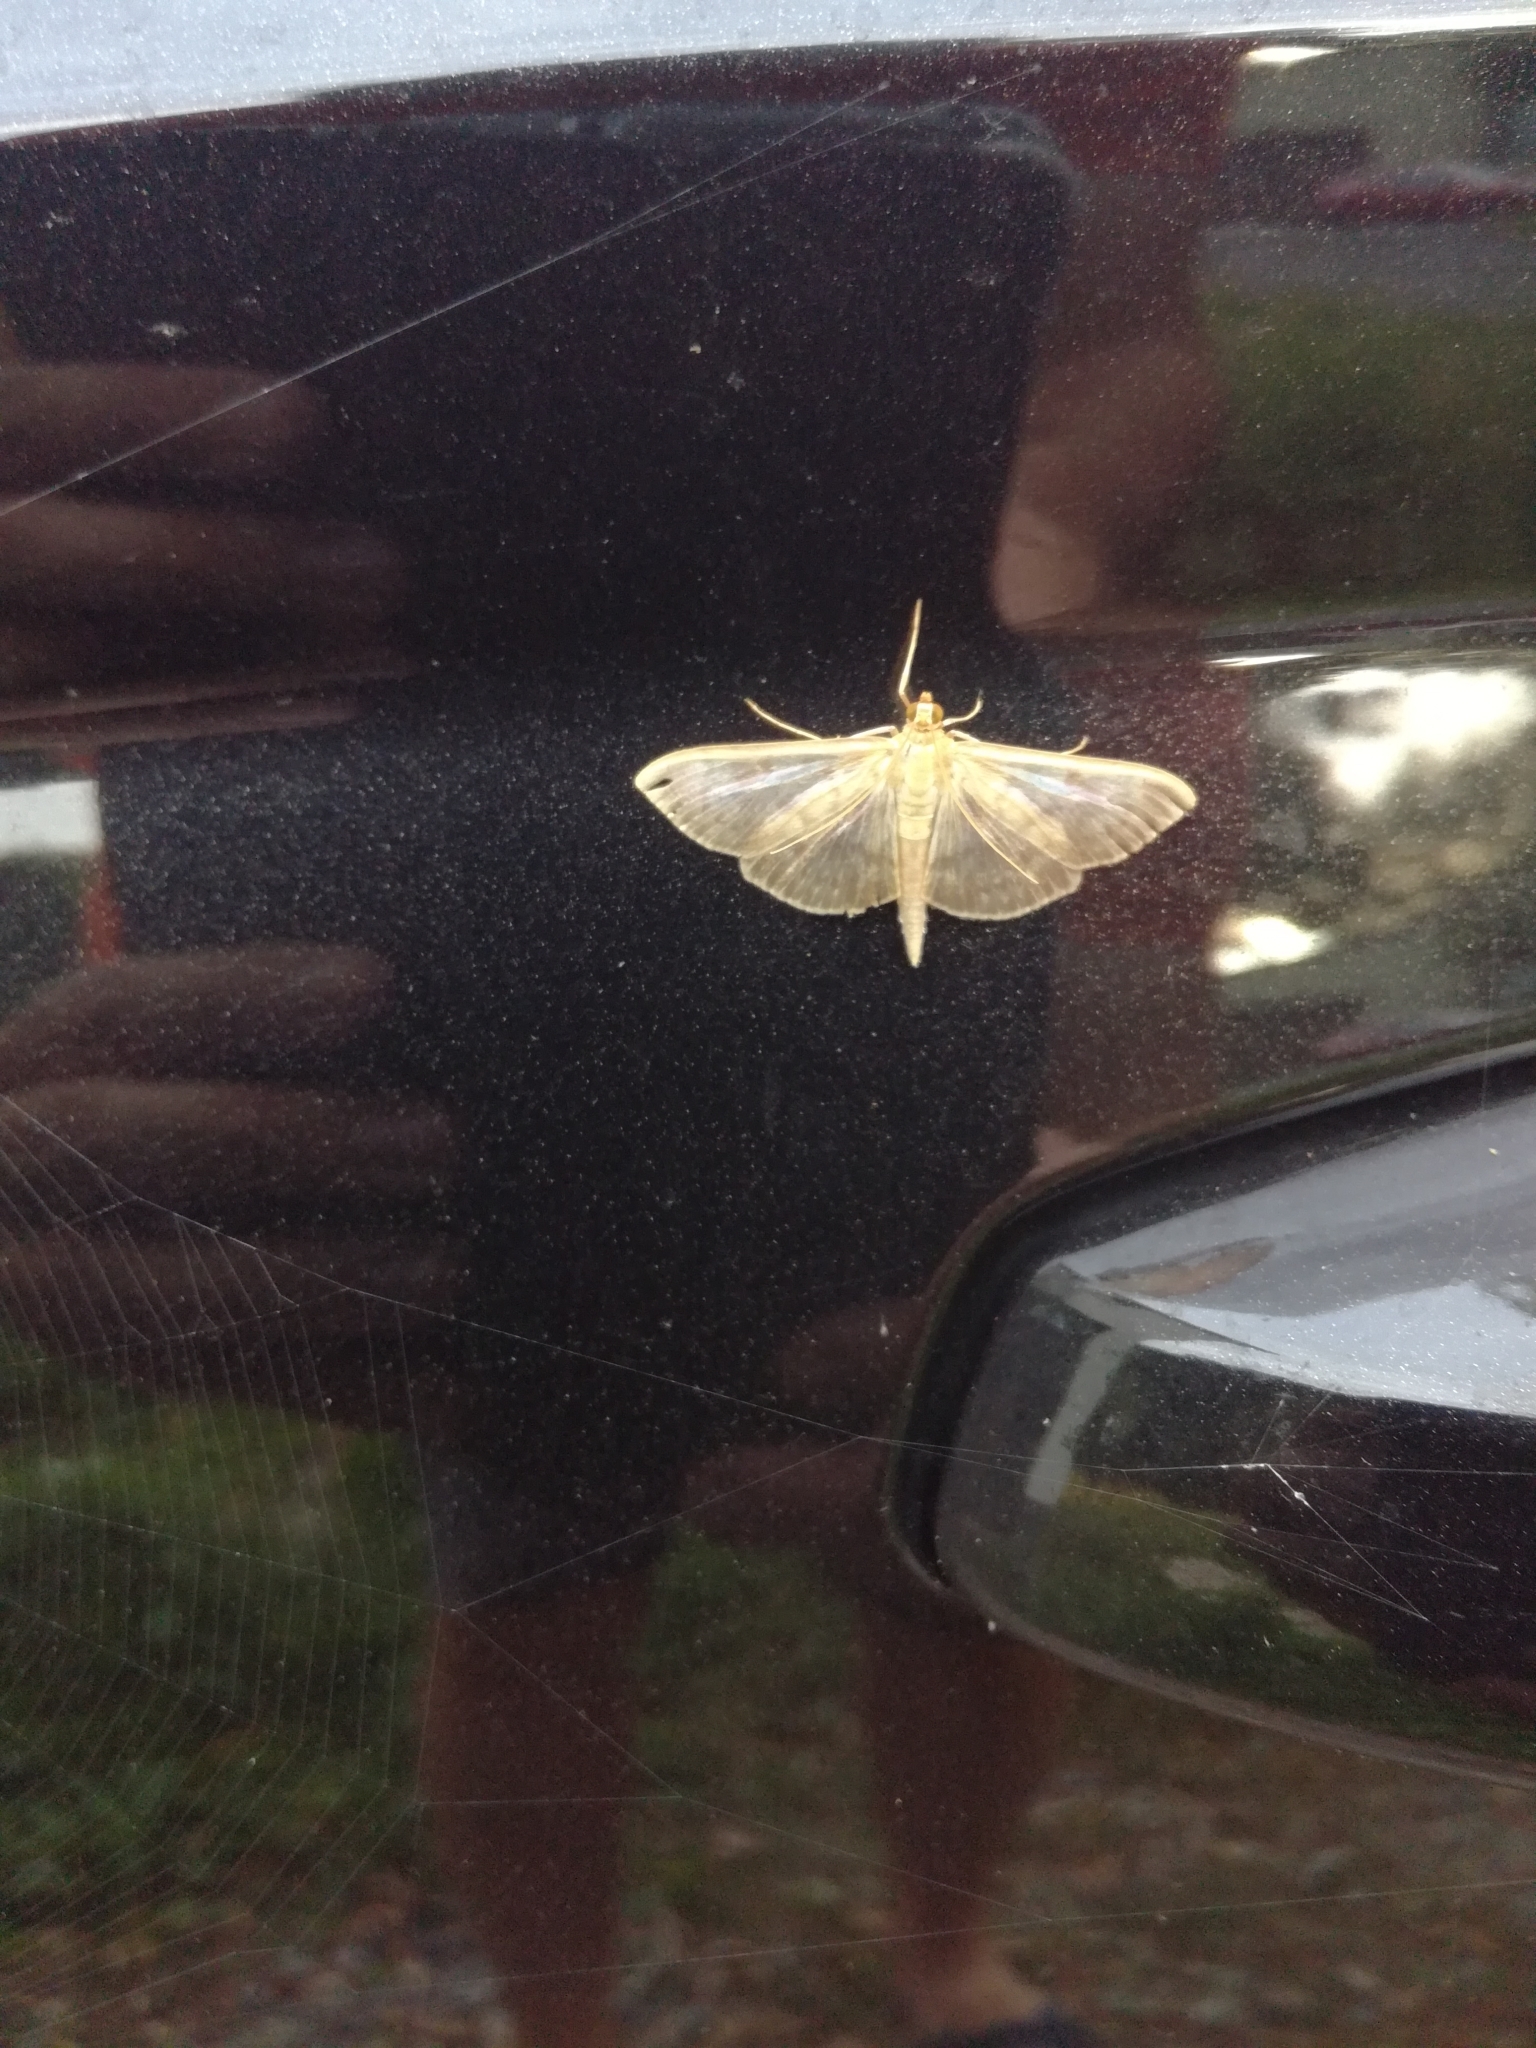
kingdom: Animalia
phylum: Arthropoda
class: Insecta
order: Lepidoptera
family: Crambidae
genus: Patania
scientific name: Patania ruralis
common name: Mother of pearl
